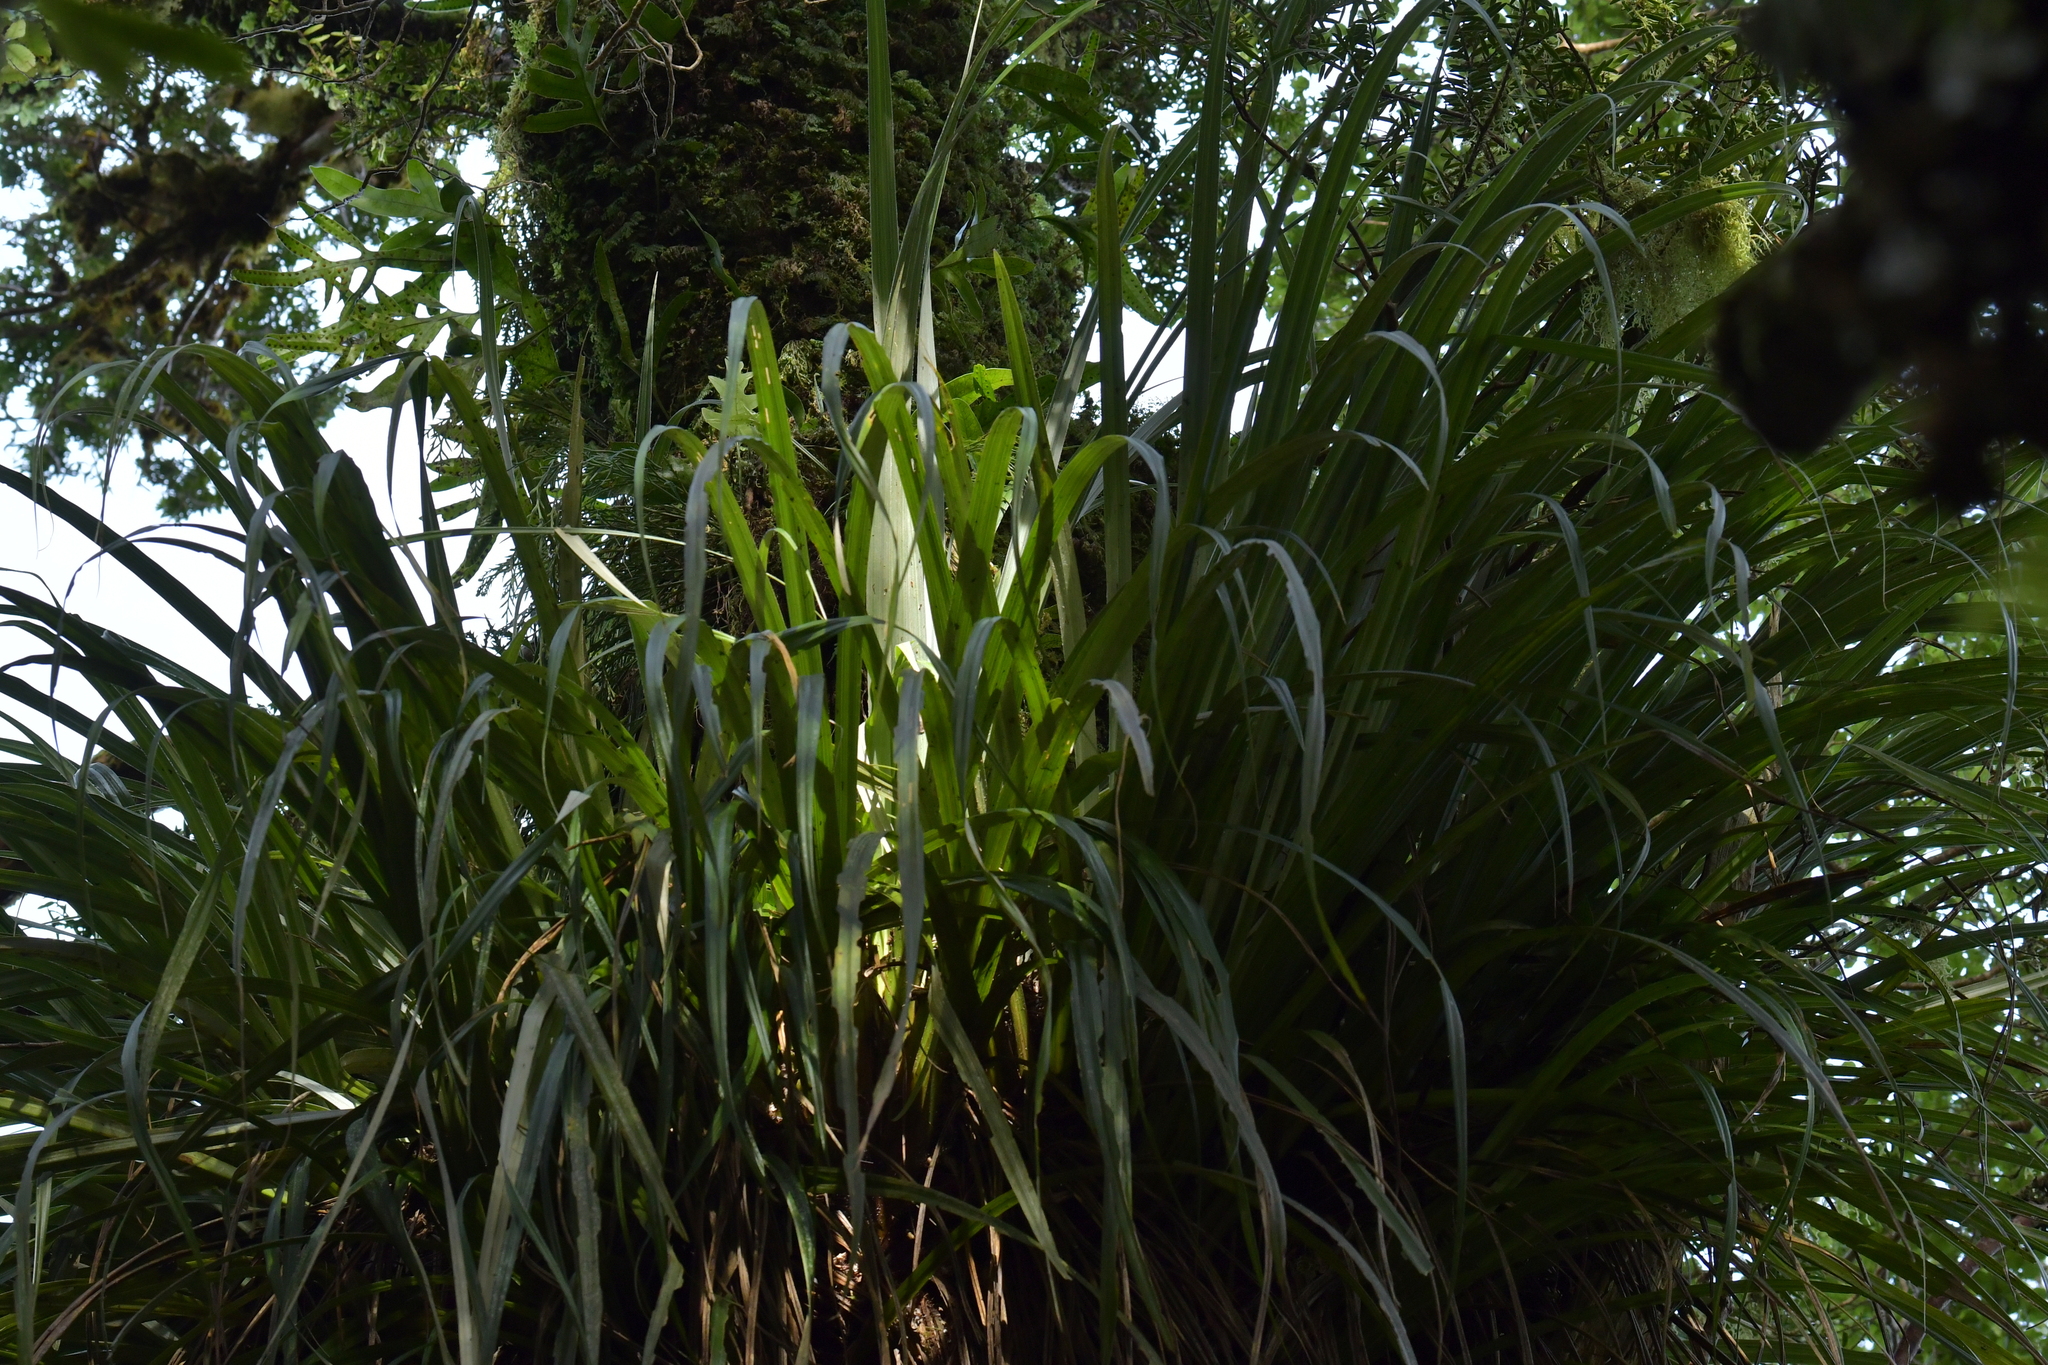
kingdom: Plantae
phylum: Tracheophyta
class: Liliopsida
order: Asparagales
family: Asteliaceae
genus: Astelia
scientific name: Astelia solandri
